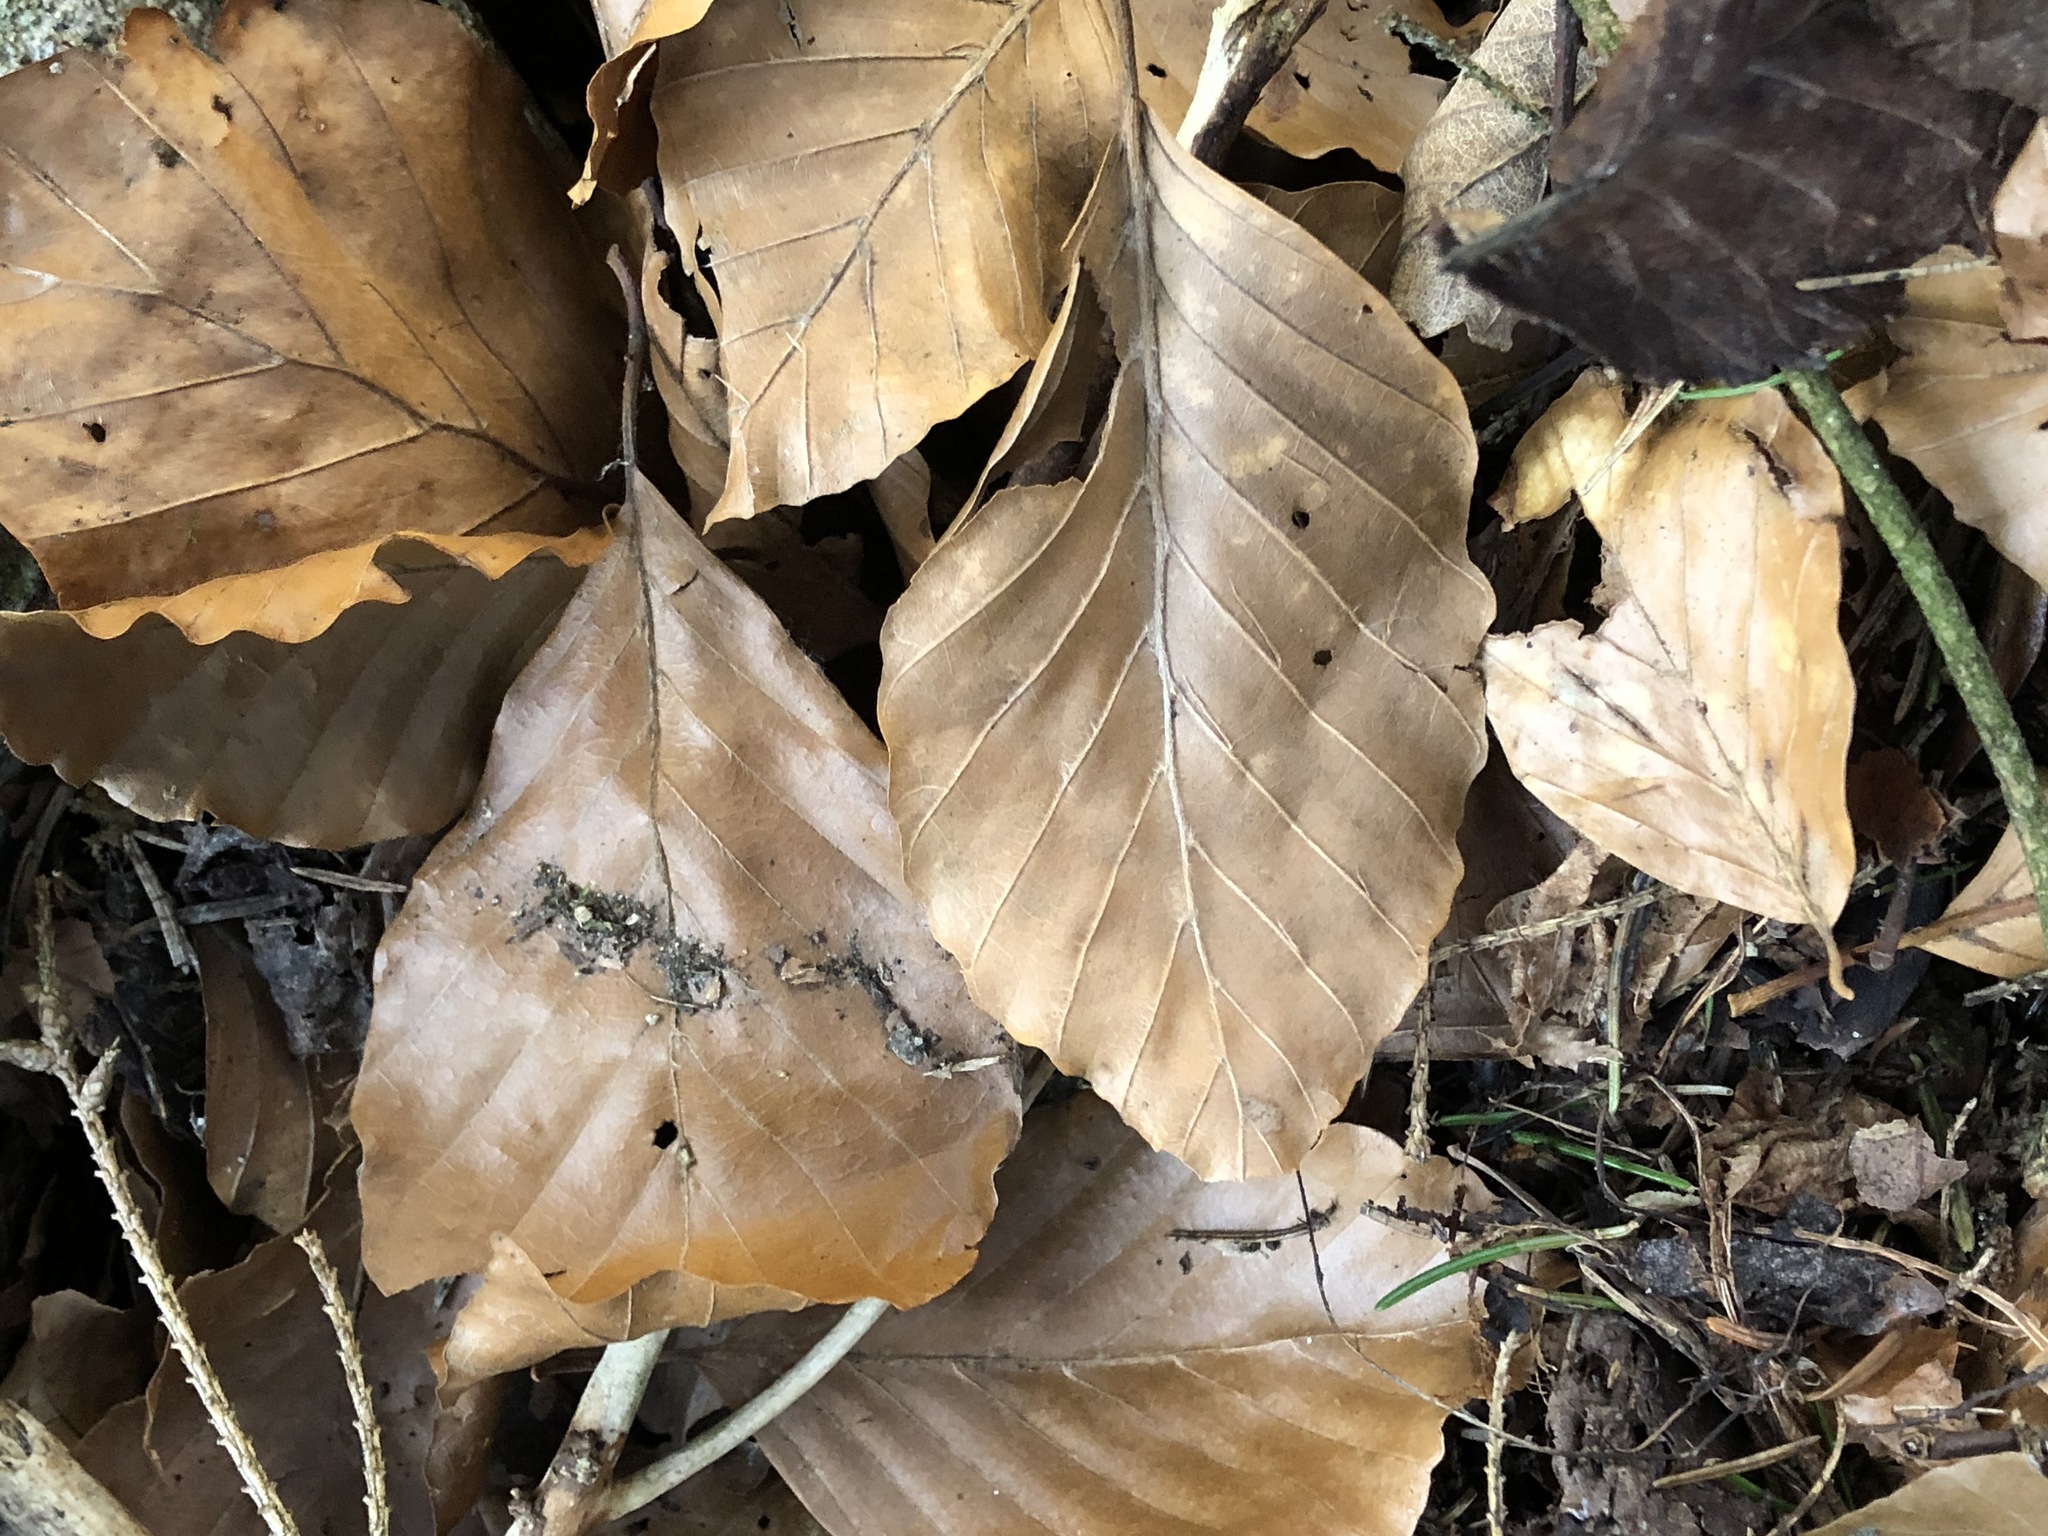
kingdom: Plantae
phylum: Tracheophyta
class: Magnoliopsida
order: Fagales
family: Fagaceae
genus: Fagus
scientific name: Fagus sylvatica
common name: Beech
